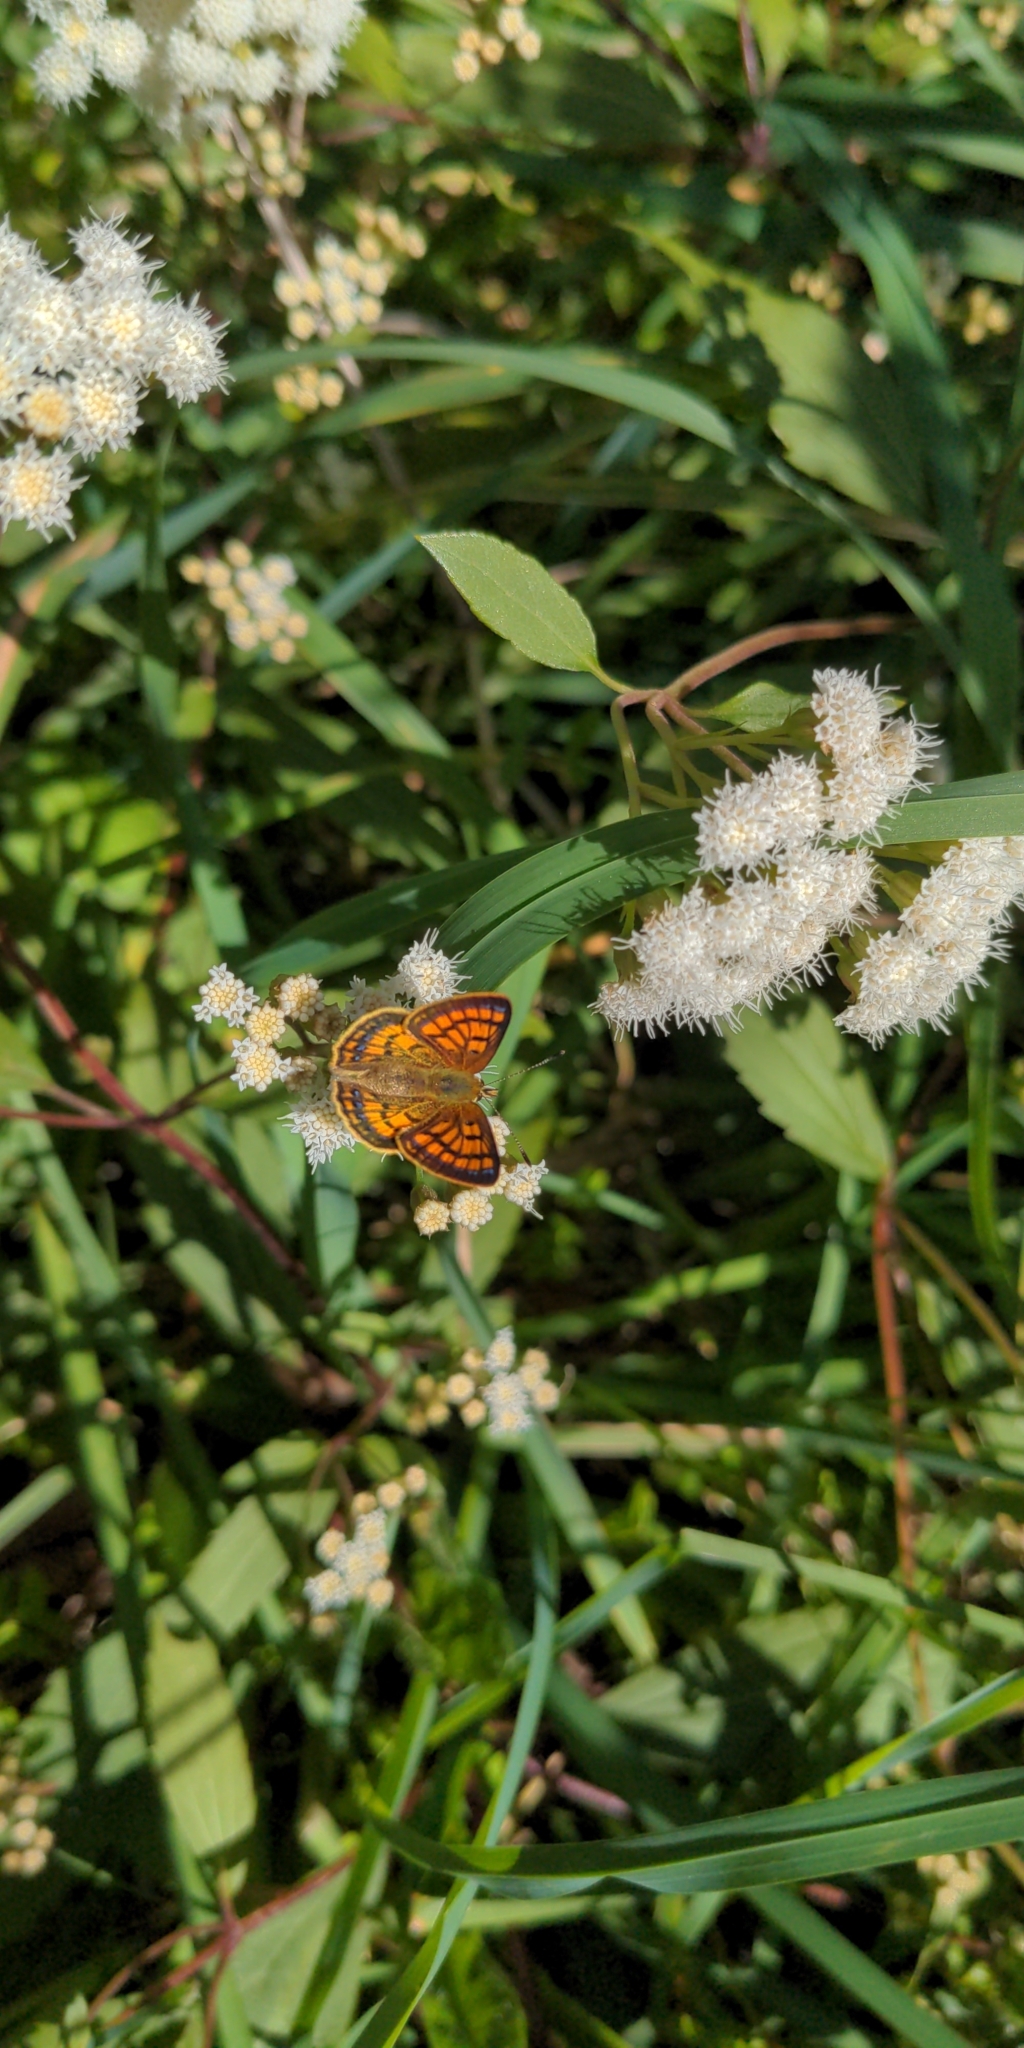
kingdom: Animalia
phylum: Arthropoda
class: Insecta
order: Lepidoptera
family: Lycaenidae
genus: Lycaena
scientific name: Lycaena salustius
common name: North island coastal copper
